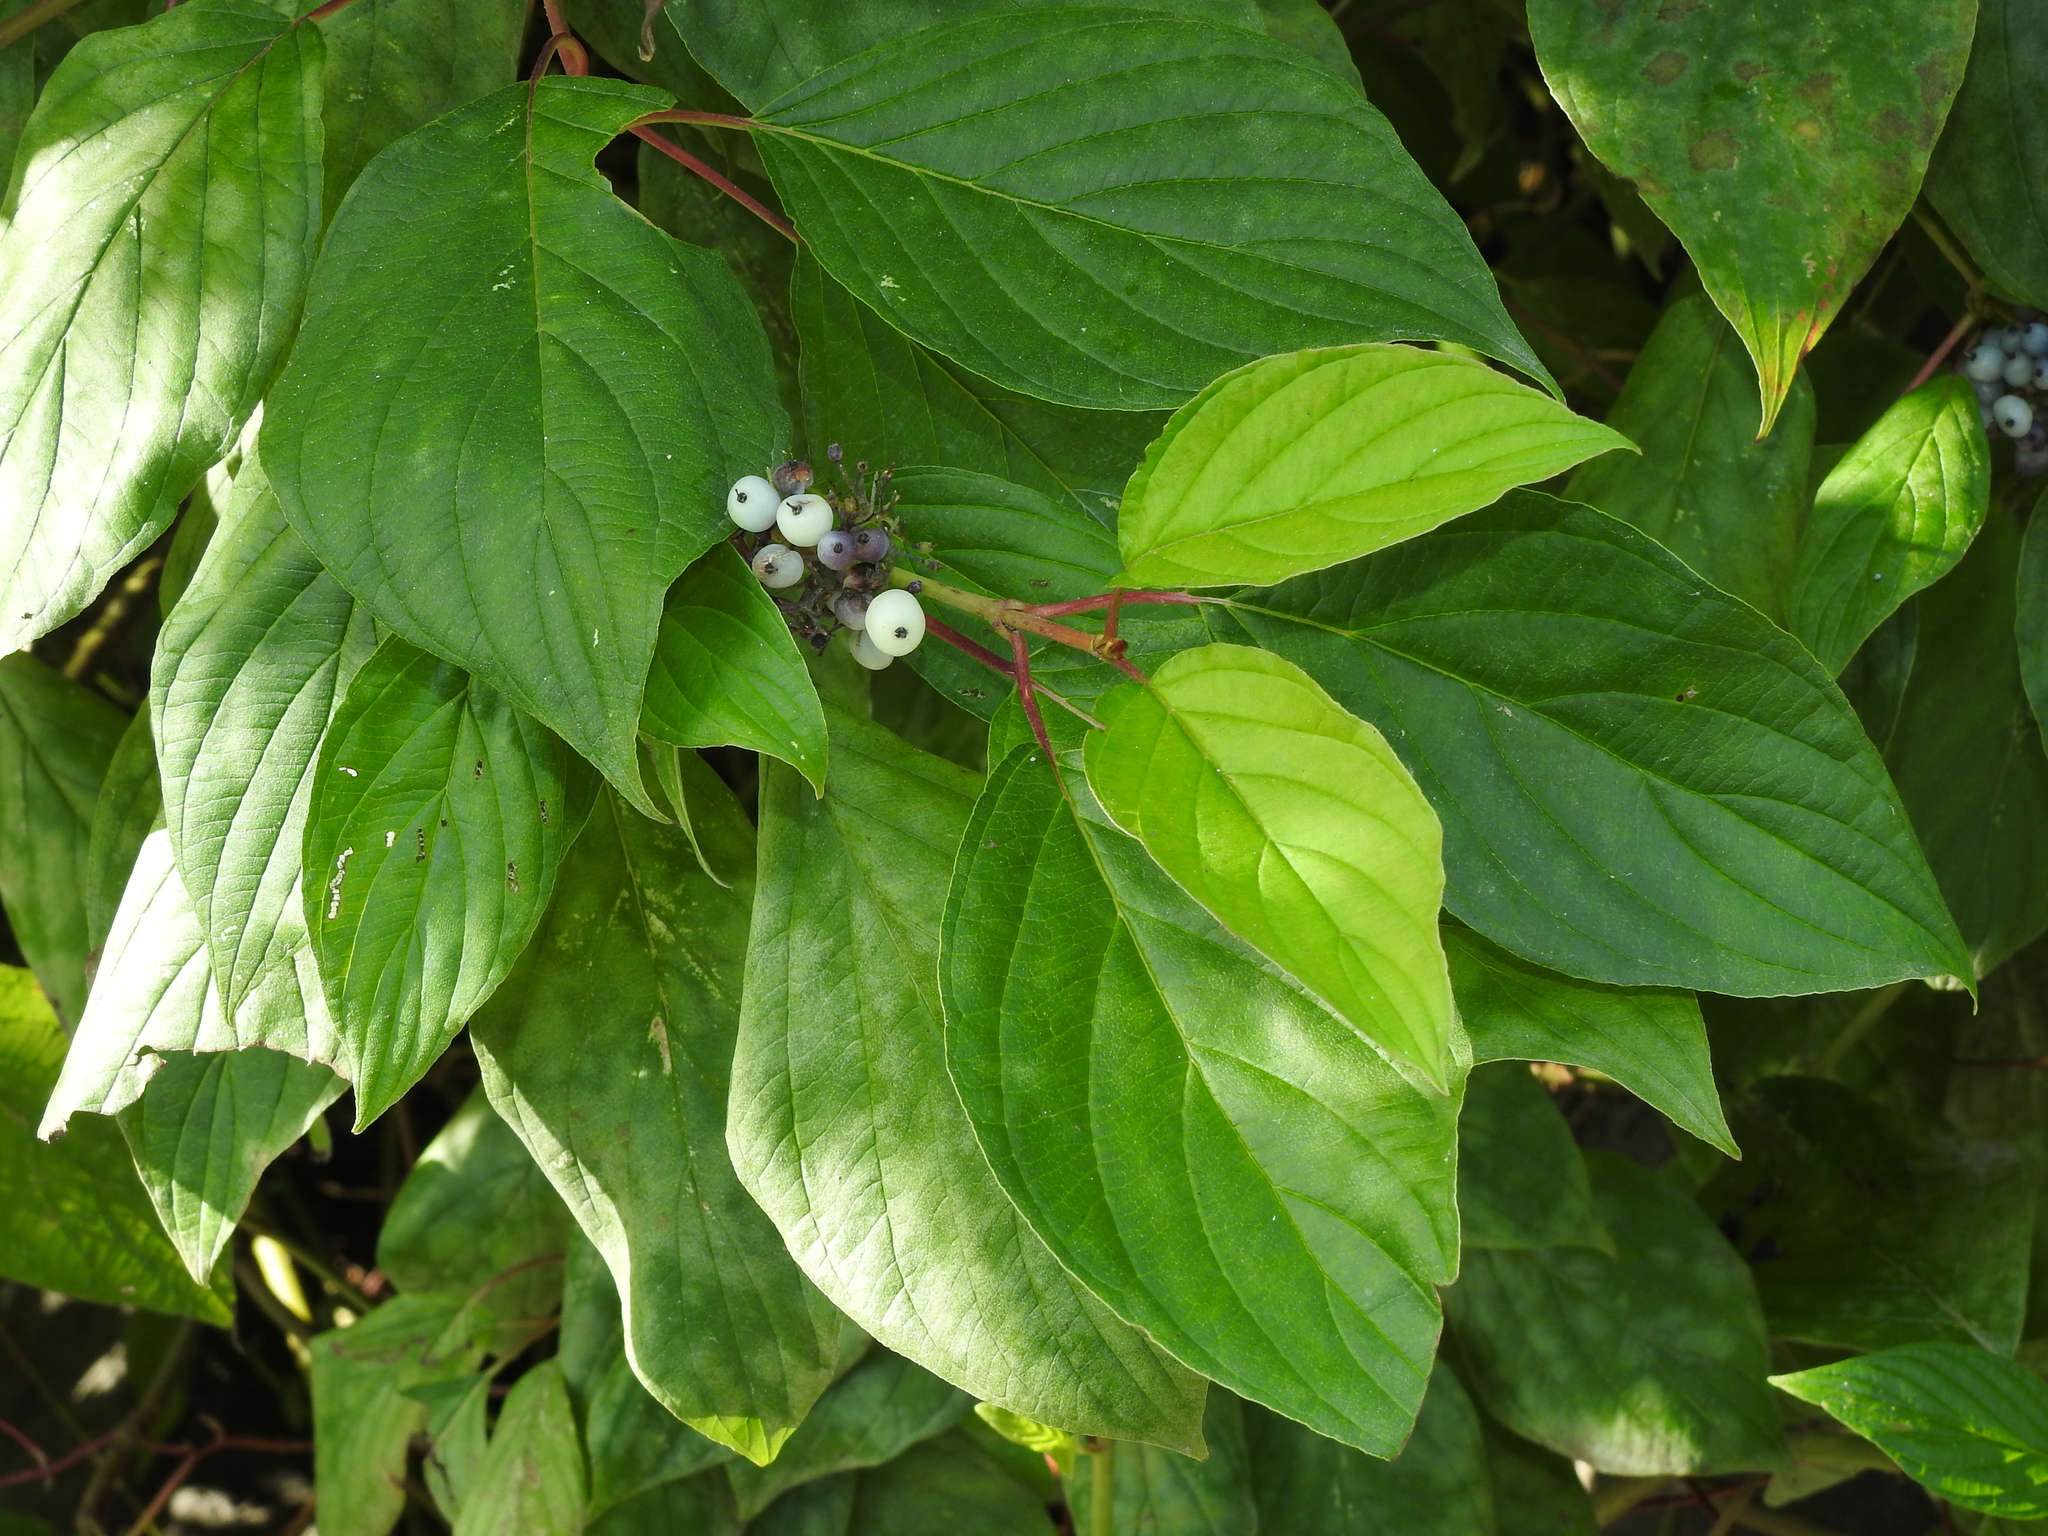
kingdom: Plantae
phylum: Tracheophyta
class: Magnoliopsida
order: Cornales
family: Cornaceae
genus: Cornus
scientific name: Cornus sericea
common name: Red-osier dogwood
